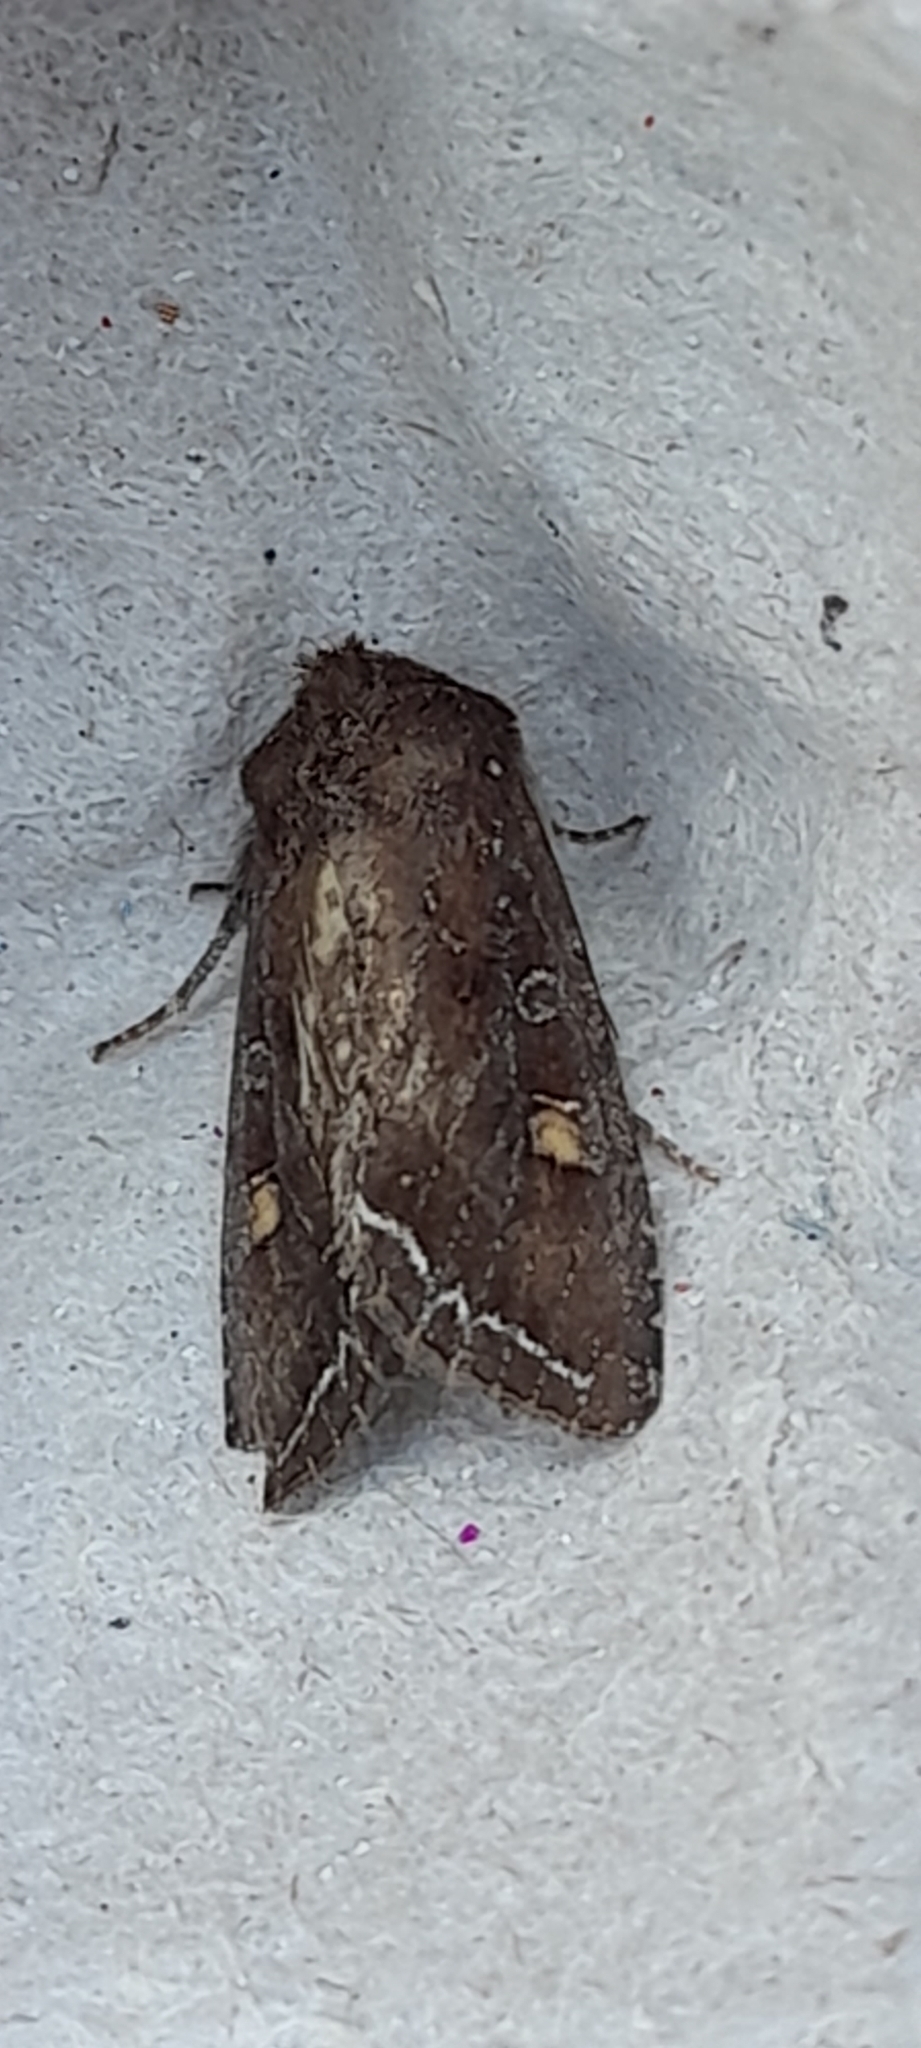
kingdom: Animalia
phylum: Arthropoda
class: Insecta
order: Lepidoptera
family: Noctuidae
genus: Lacanobia
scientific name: Lacanobia oleracea
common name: Bright-line brown-eye
